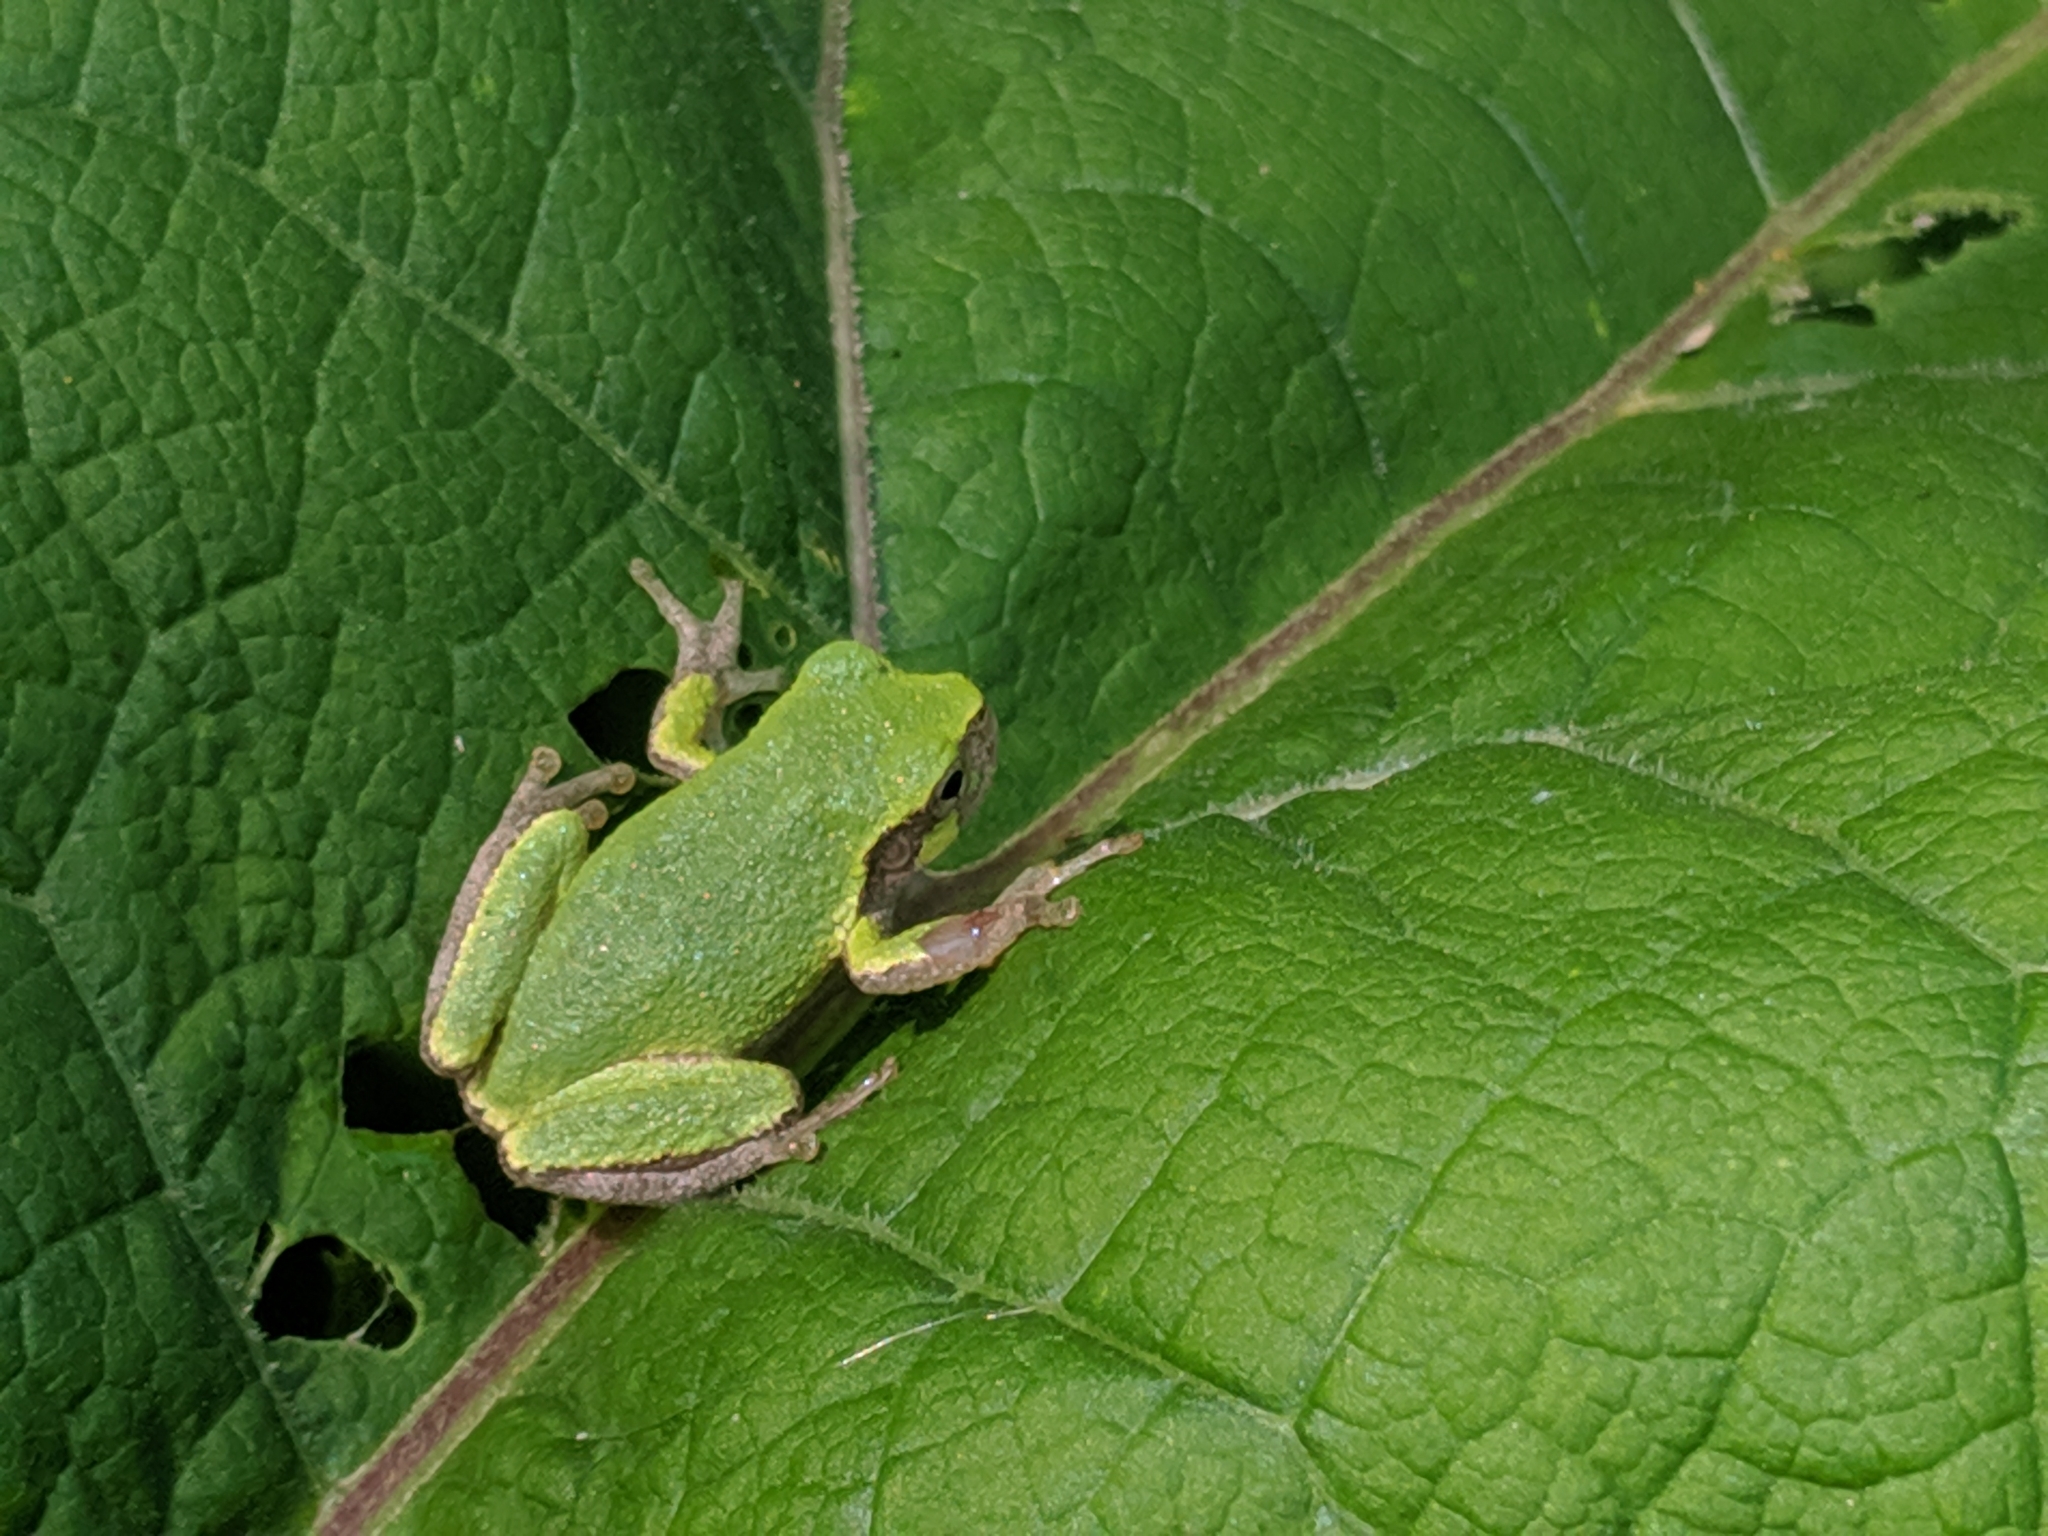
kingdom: Animalia
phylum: Chordata
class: Amphibia
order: Anura
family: Hylidae
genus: Hyla
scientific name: Hyla
